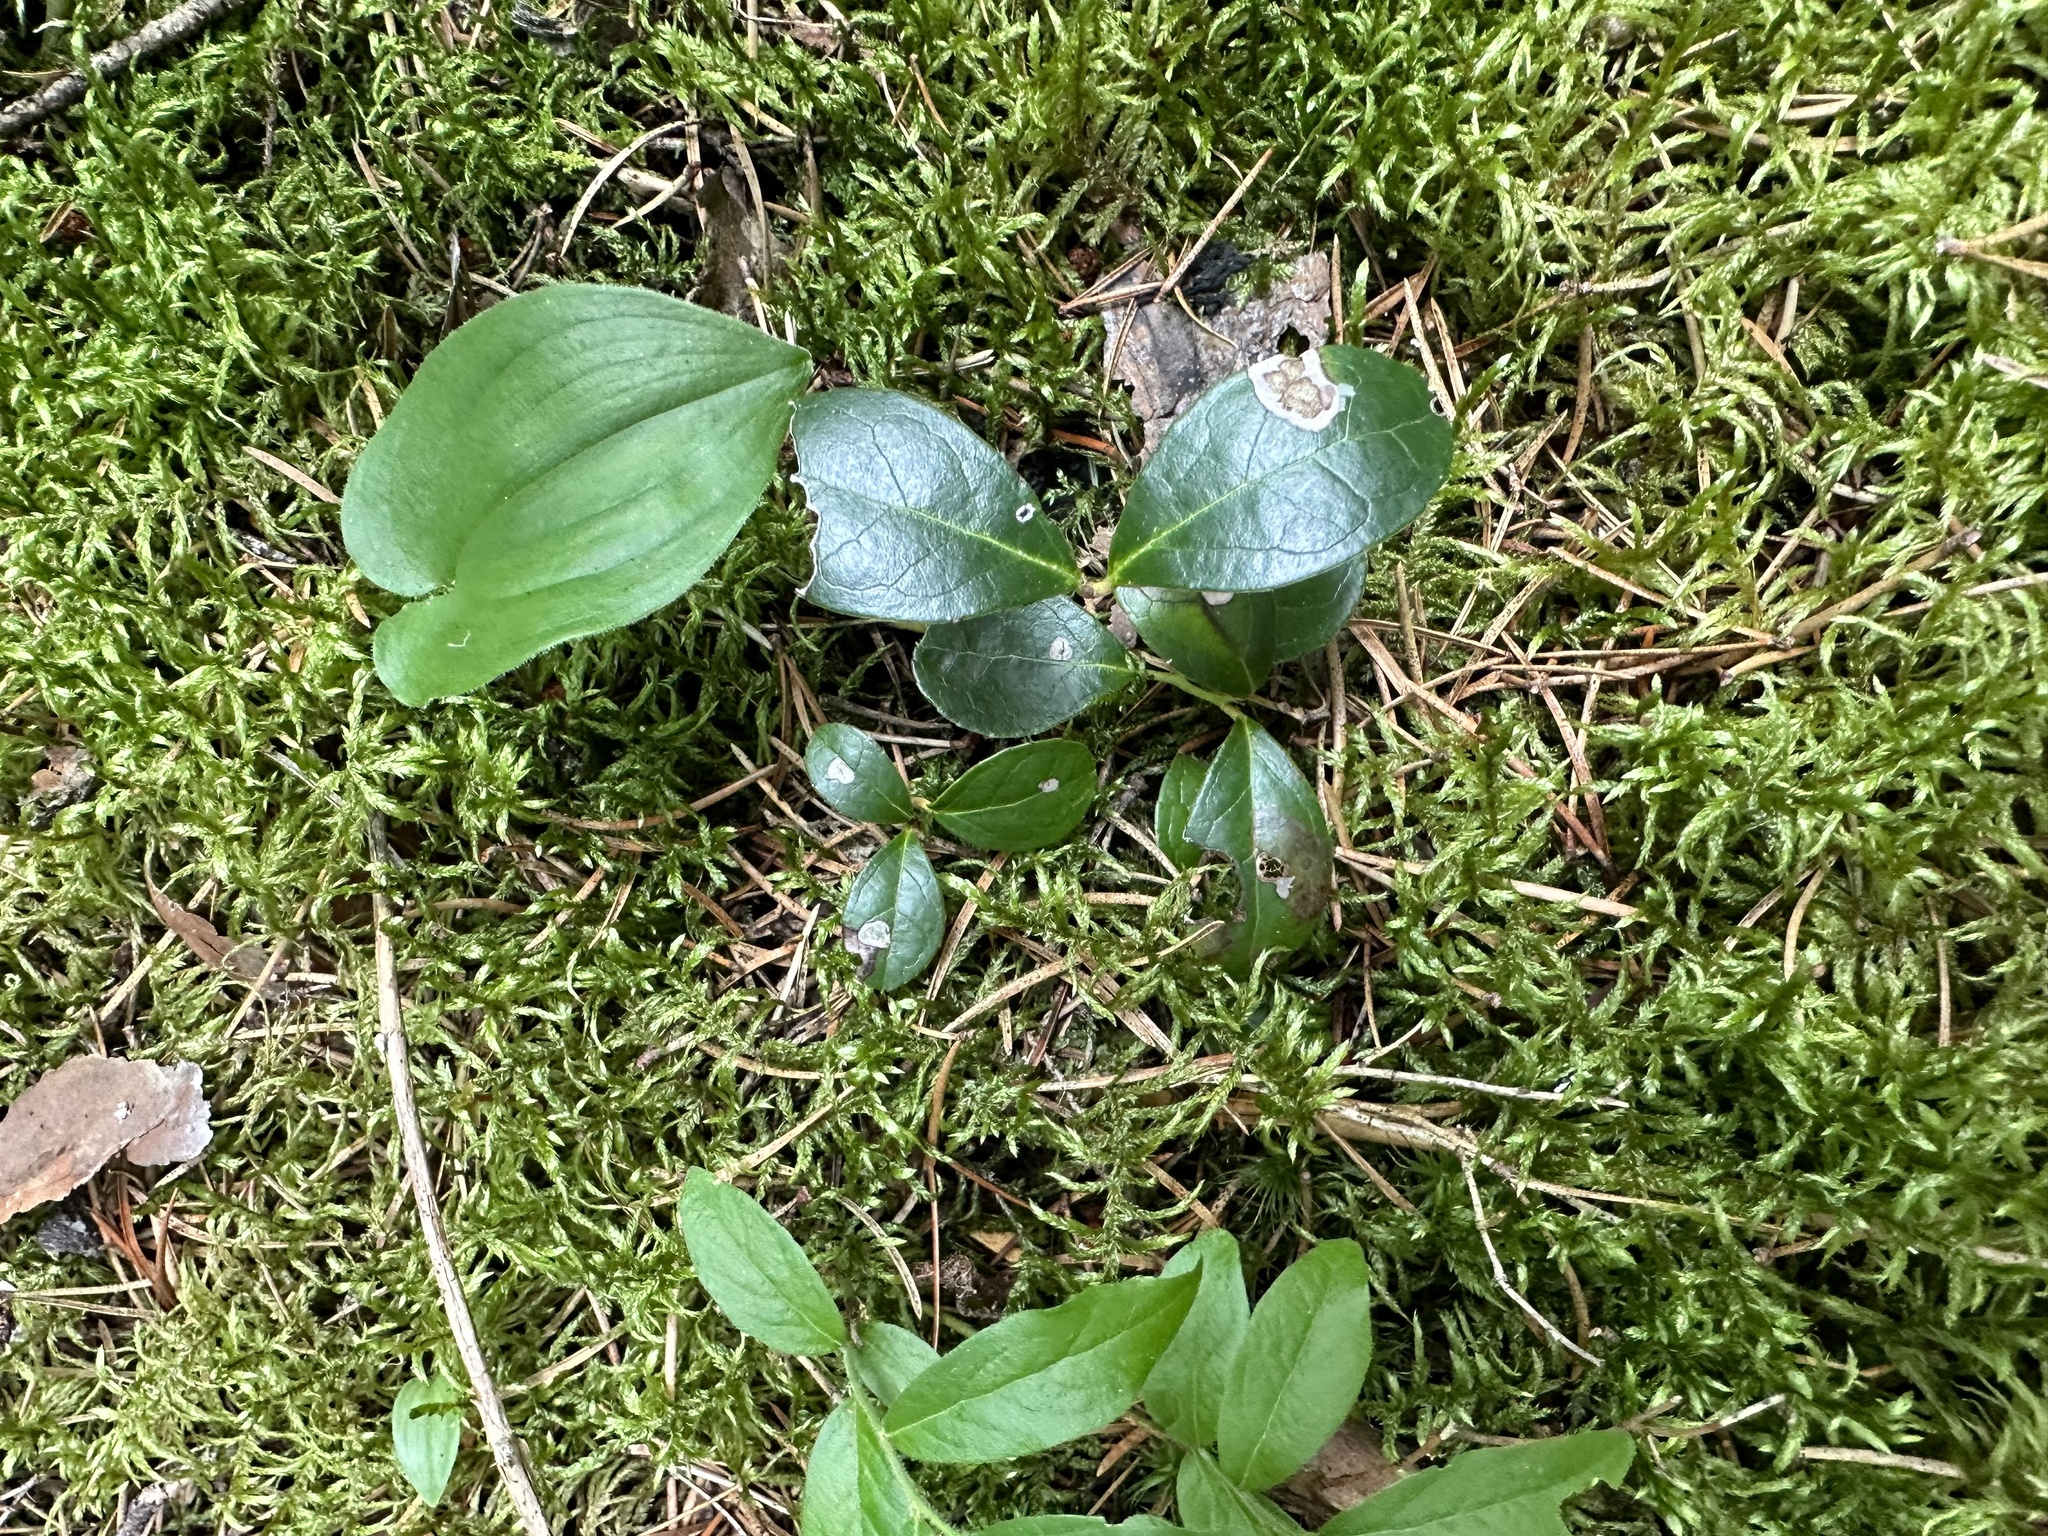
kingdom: Plantae
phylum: Tracheophyta
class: Magnoliopsida
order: Ericales
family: Ericaceae
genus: Gaultheria
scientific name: Gaultheria procumbens
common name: Checkerberry
